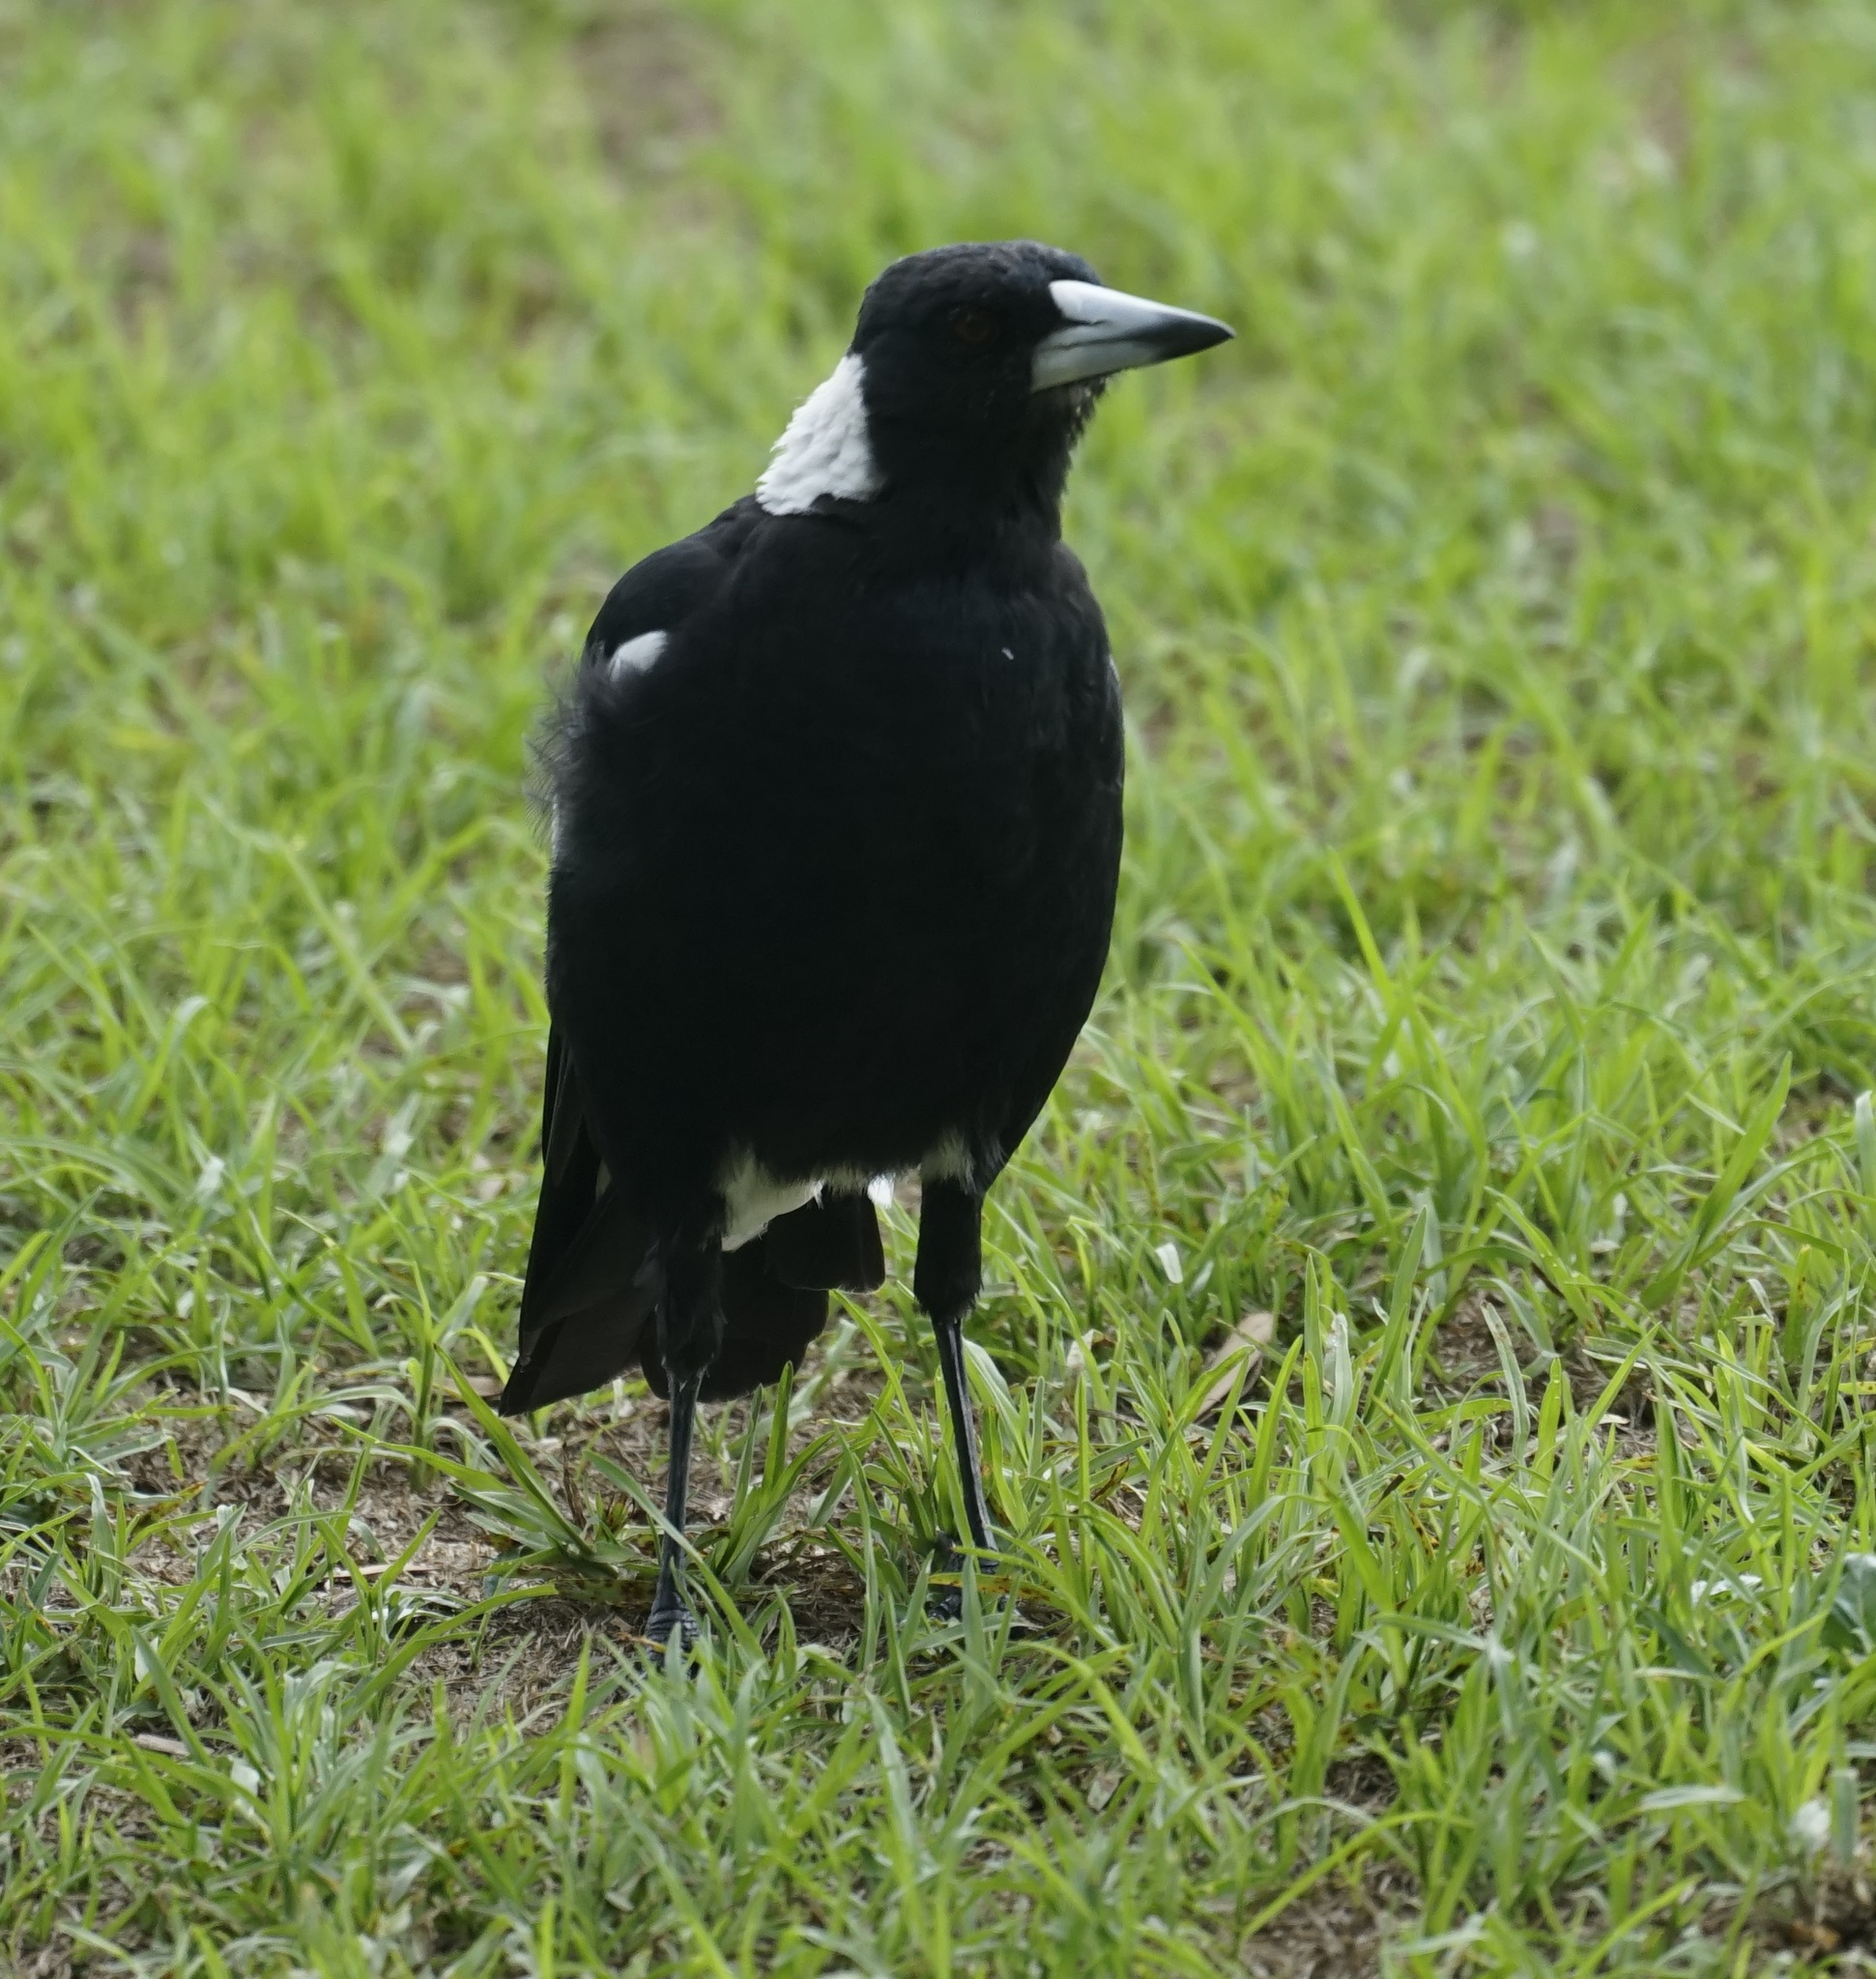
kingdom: Animalia
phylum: Chordata
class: Aves
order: Passeriformes
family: Cracticidae
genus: Gymnorhina
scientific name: Gymnorhina tibicen
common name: Australian magpie
